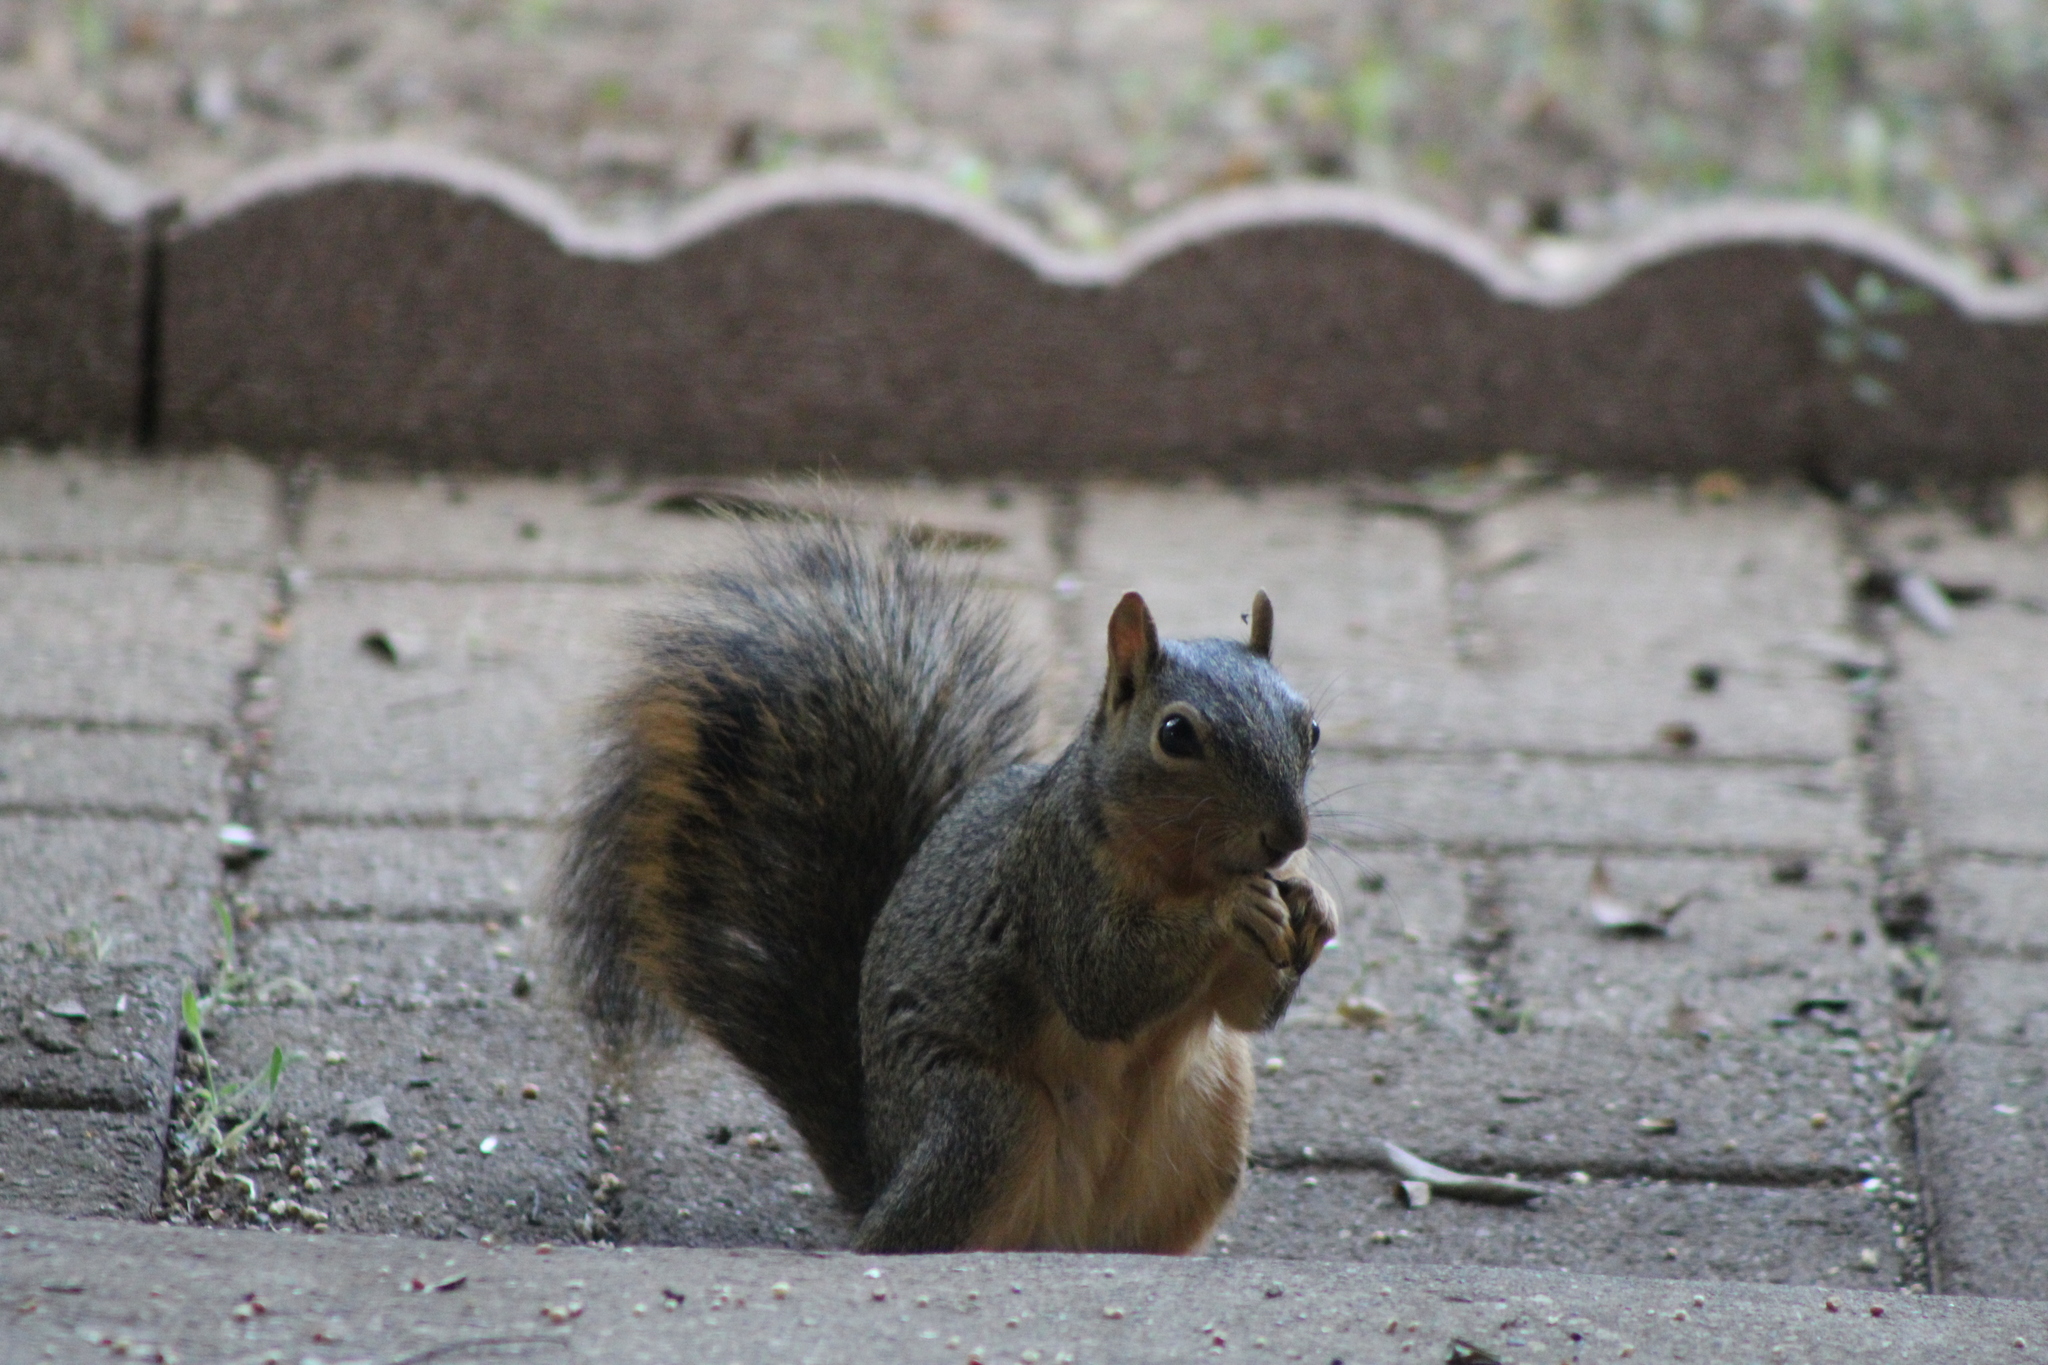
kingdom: Animalia
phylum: Chordata
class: Mammalia
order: Rodentia
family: Sciuridae
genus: Sciurus
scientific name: Sciurus niger
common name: Fox squirrel
